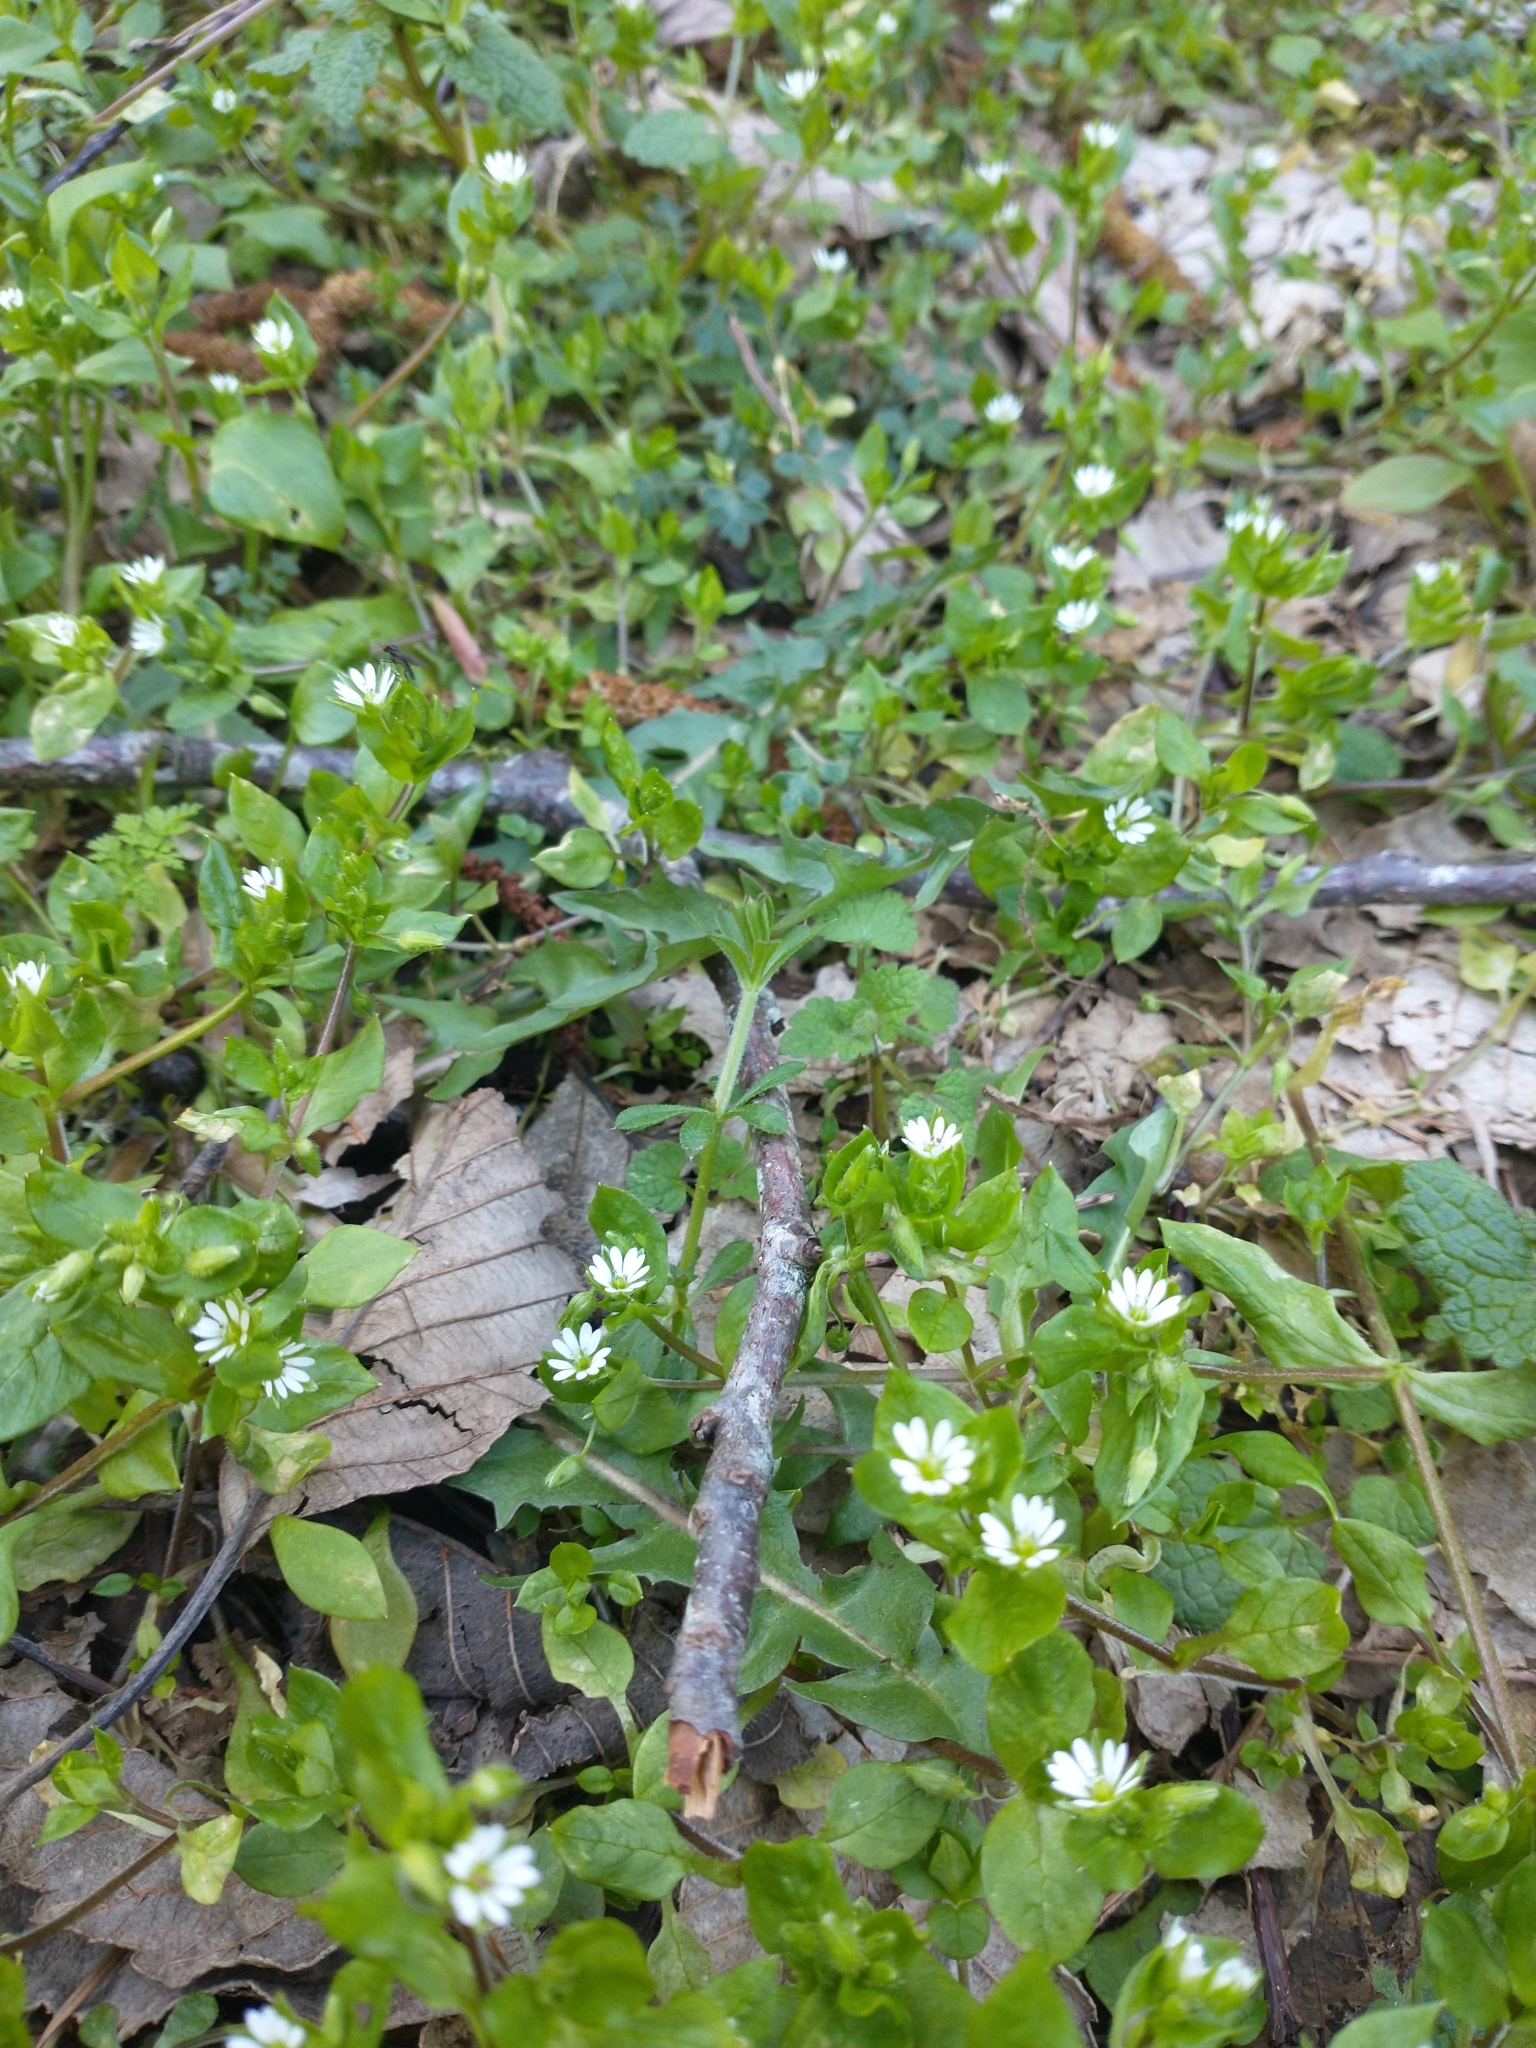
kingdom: Plantae
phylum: Tracheophyta
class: Magnoliopsida
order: Caryophyllales
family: Caryophyllaceae
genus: Stellaria
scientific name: Stellaria media
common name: Common chickweed
